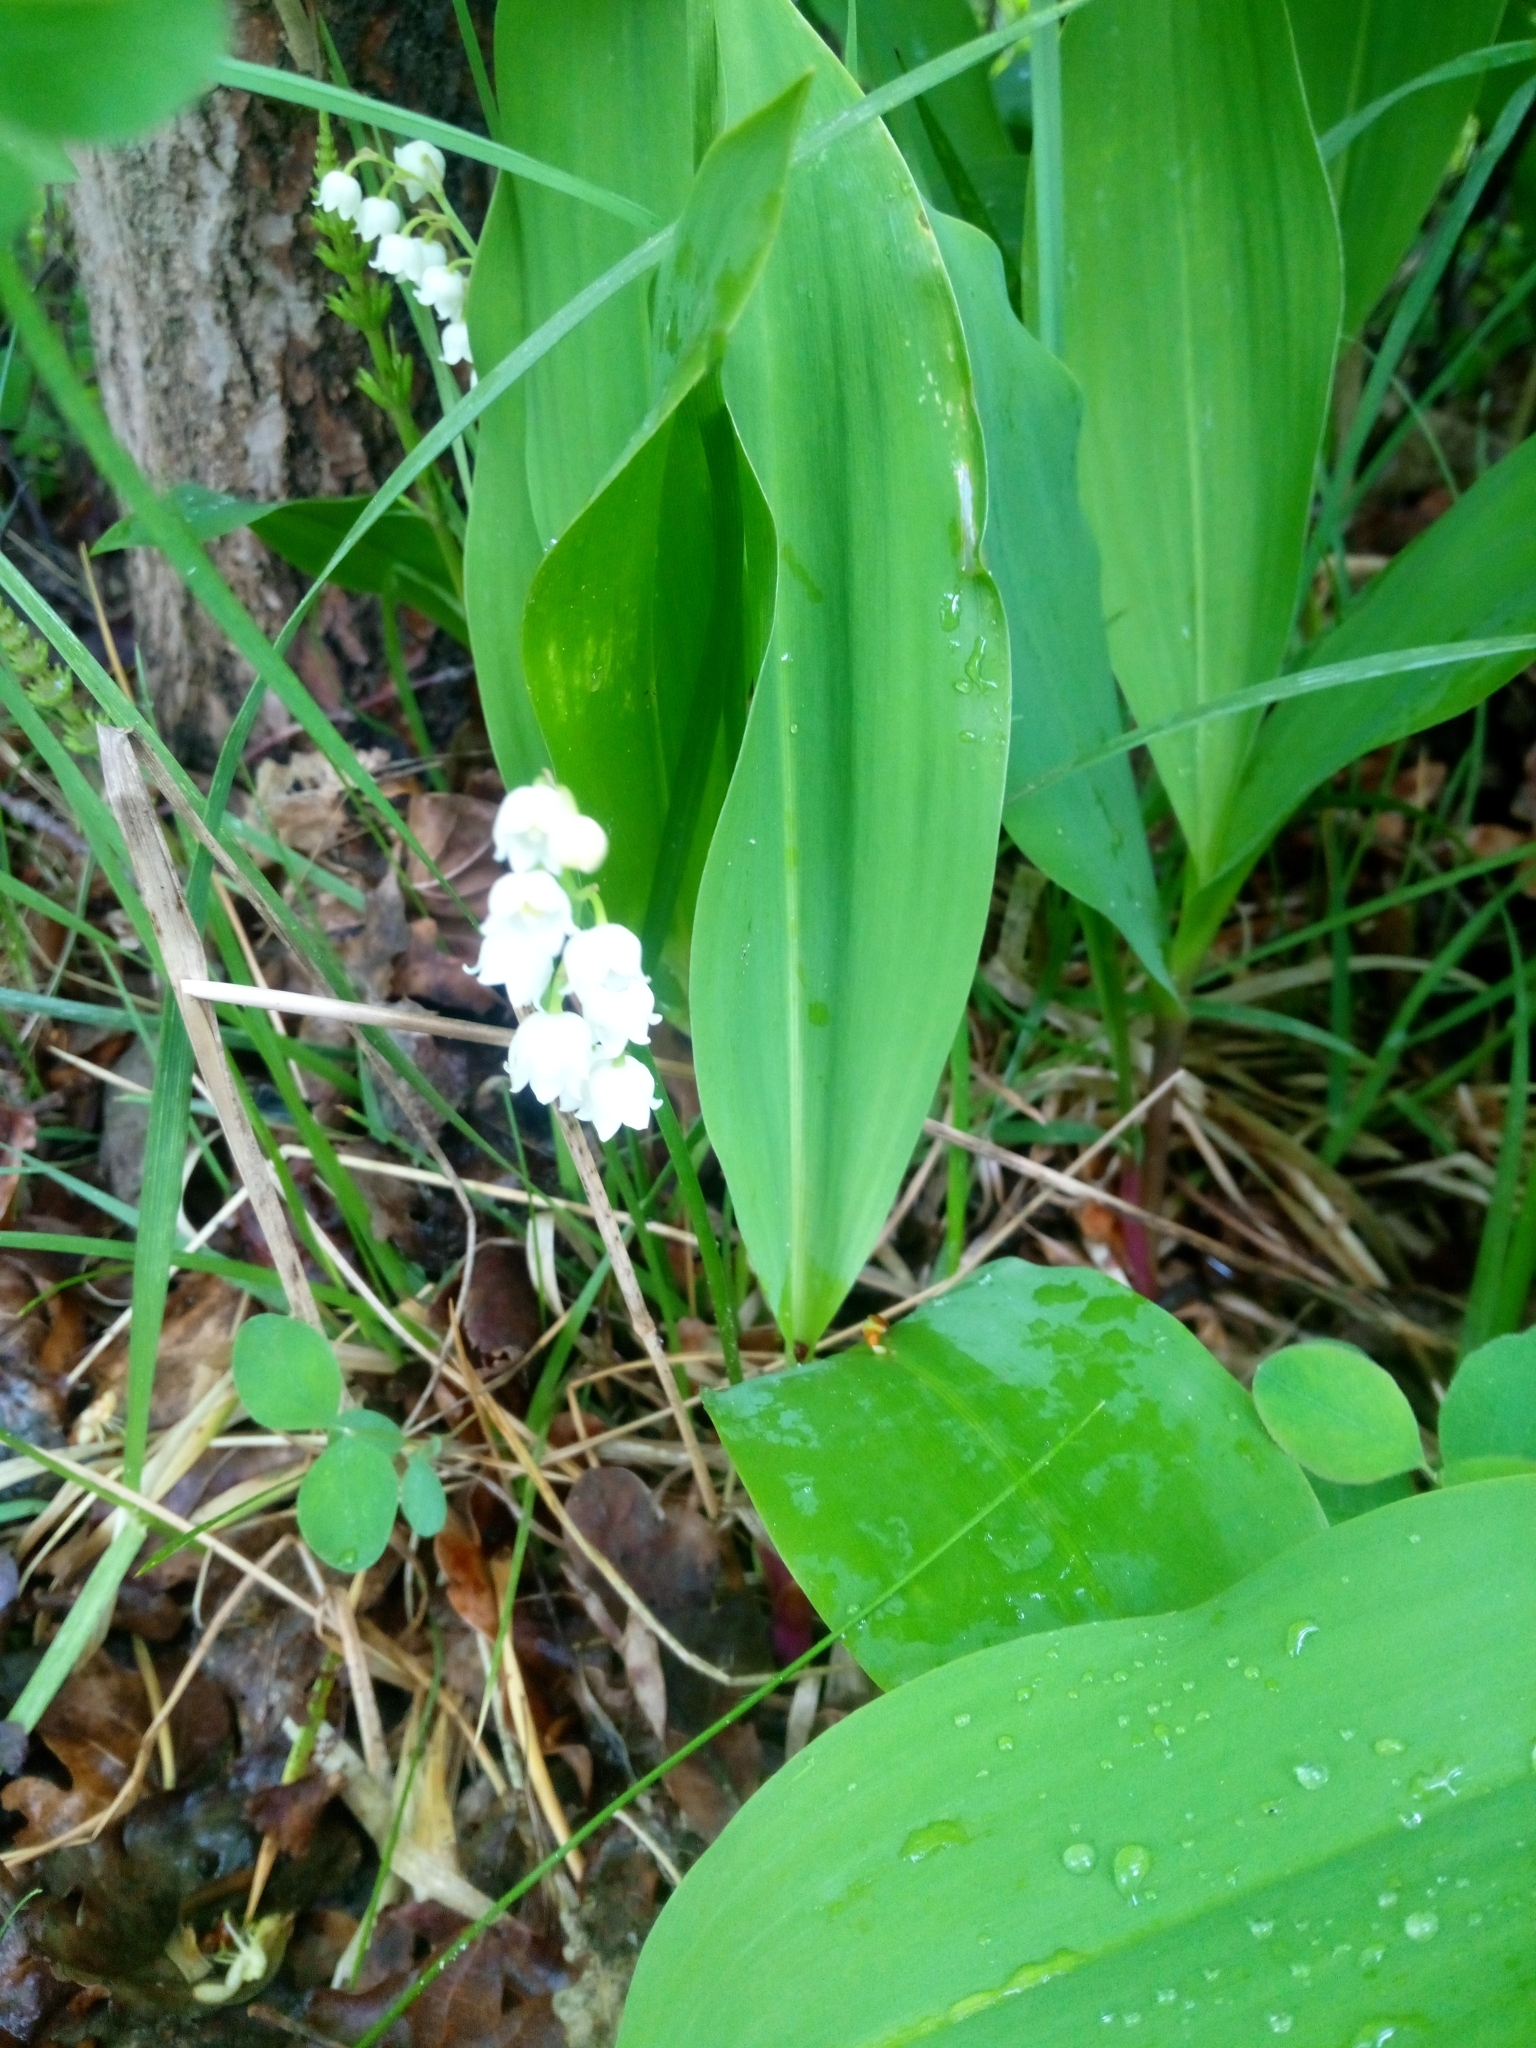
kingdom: Plantae
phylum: Tracheophyta
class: Liliopsida
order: Asparagales
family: Asparagaceae
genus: Convallaria
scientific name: Convallaria majalis
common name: Lily-of-the-valley
